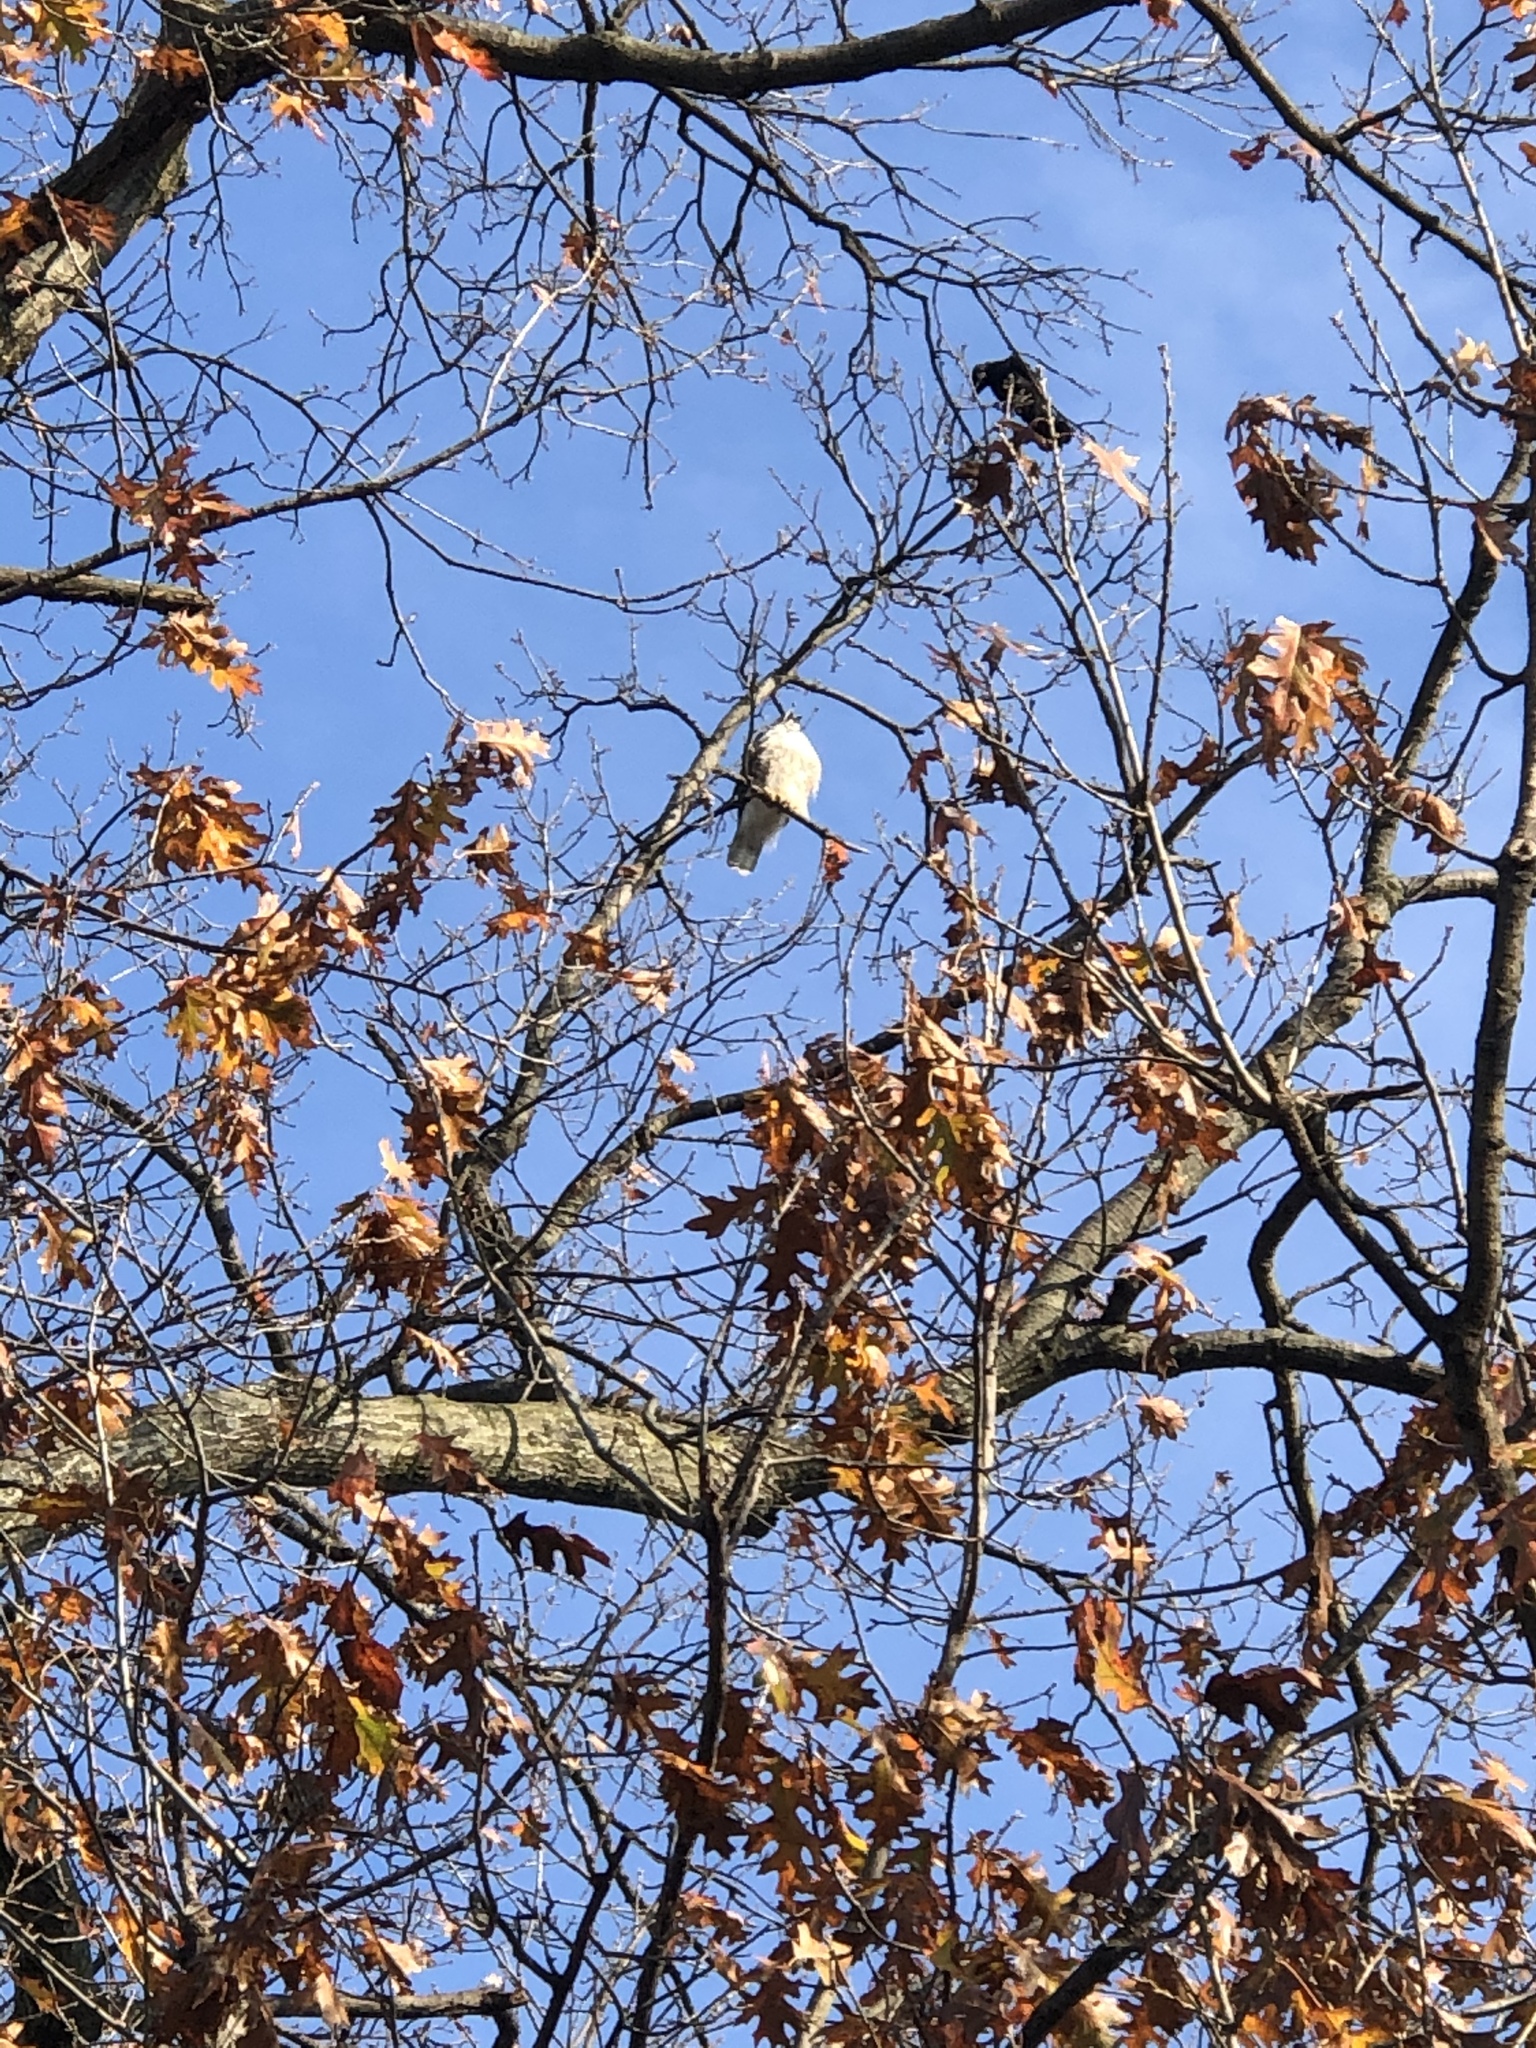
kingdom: Animalia
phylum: Chordata
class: Aves
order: Accipitriformes
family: Accipitridae
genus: Buteo
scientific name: Buteo jamaicensis
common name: Red-tailed hawk
